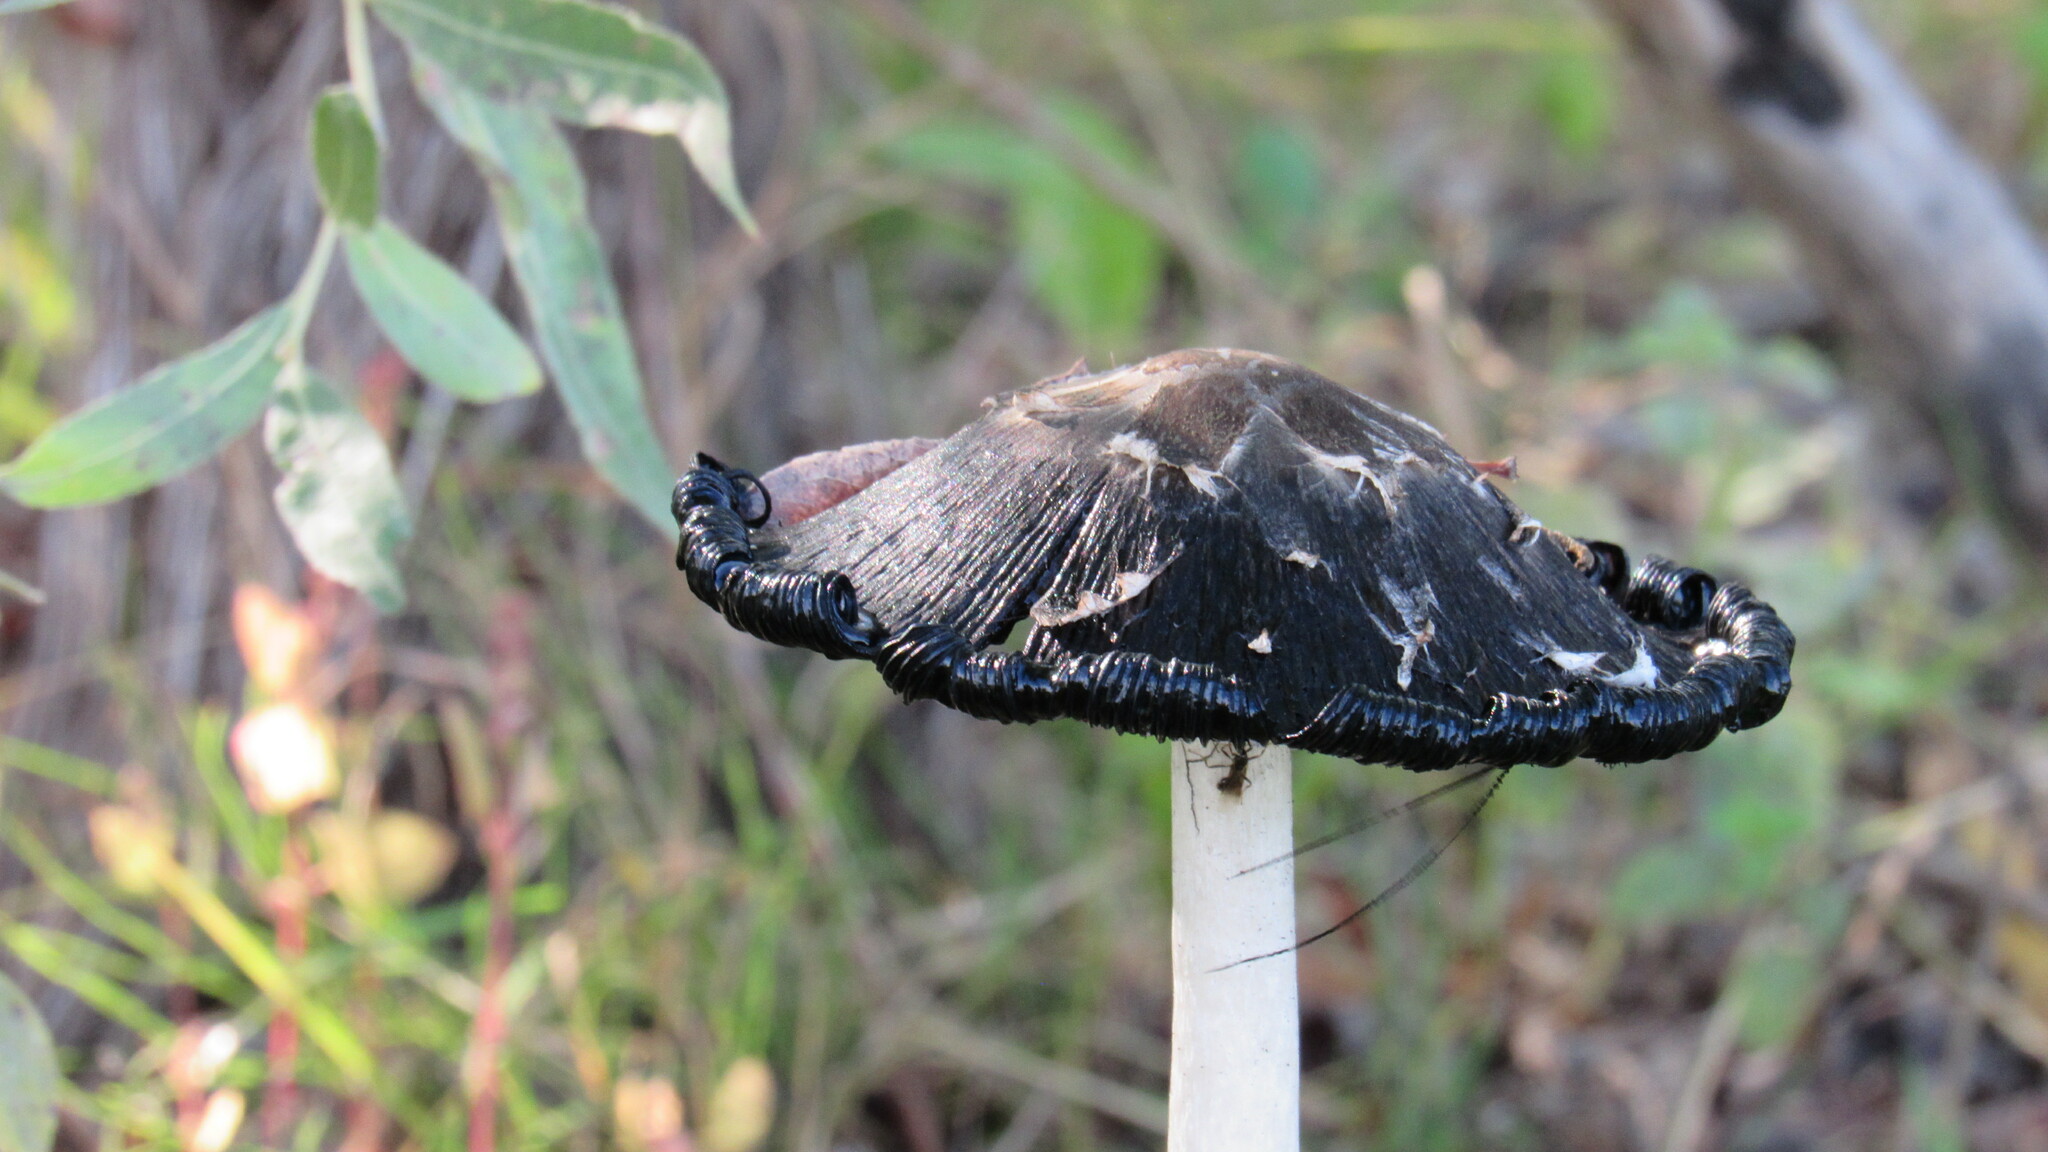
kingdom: Fungi
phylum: Basidiomycota
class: Agaricomycetes
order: Agaricales
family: Agaricaceae
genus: Coprinus
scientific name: Coprinus comatus
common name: Lawyer's wig
